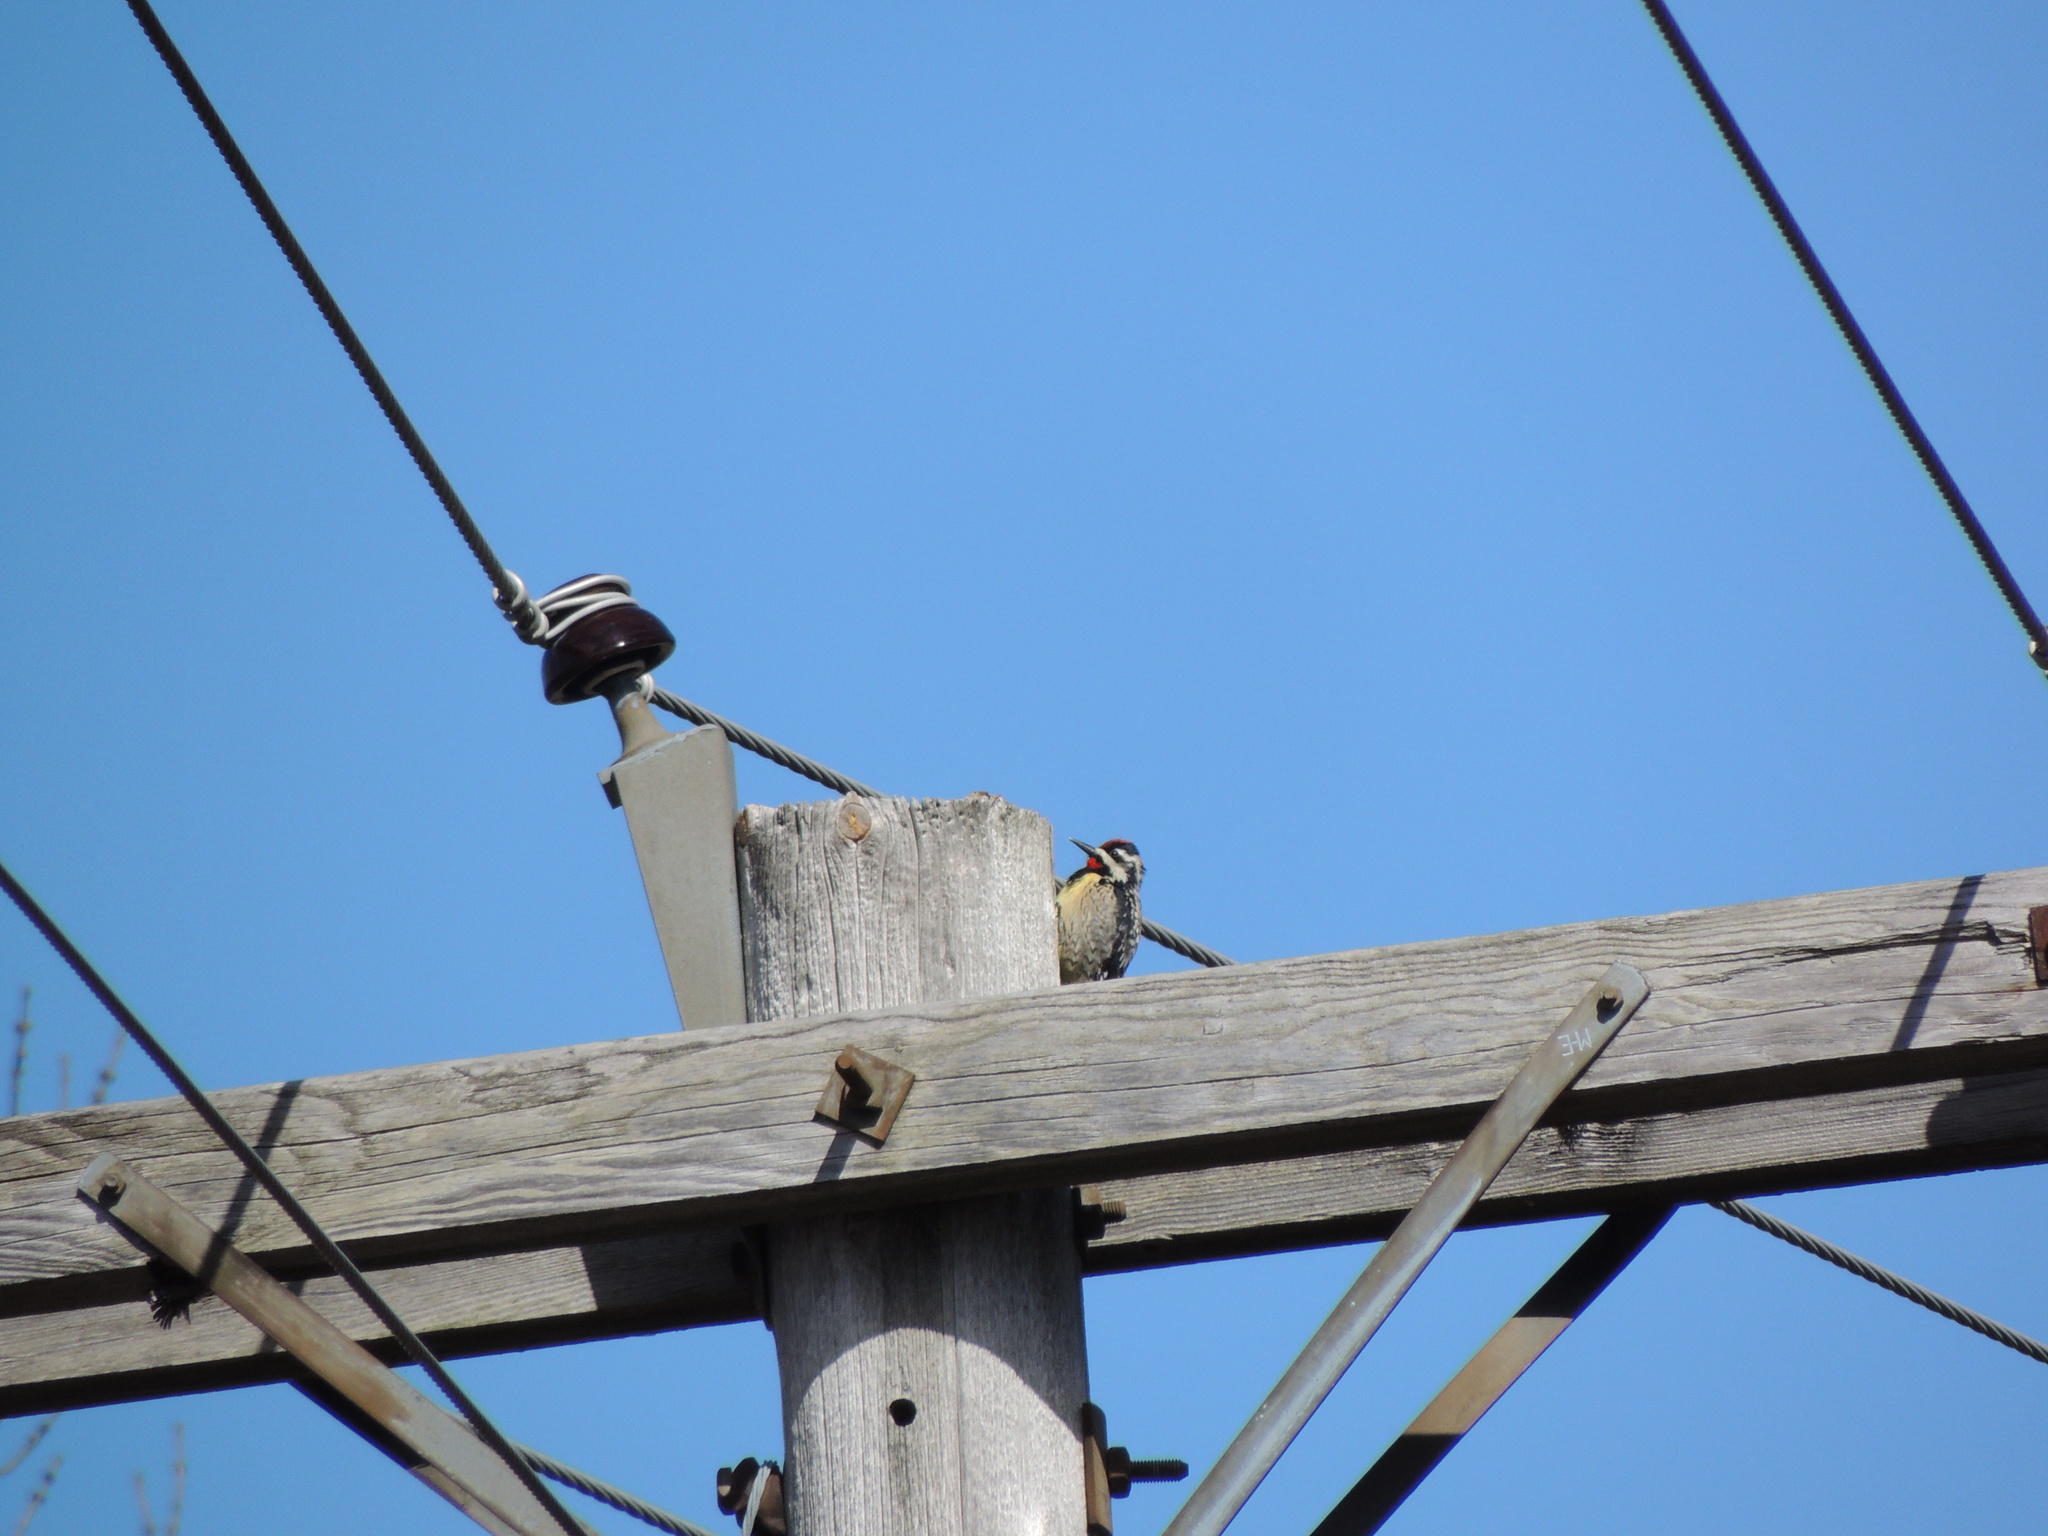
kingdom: Animalia
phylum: Chordata
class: Aves
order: Piciformes
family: Picidae
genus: Sphyrapicus
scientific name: Sphyrapicus varius
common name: Yellow-bellied sapsucker
